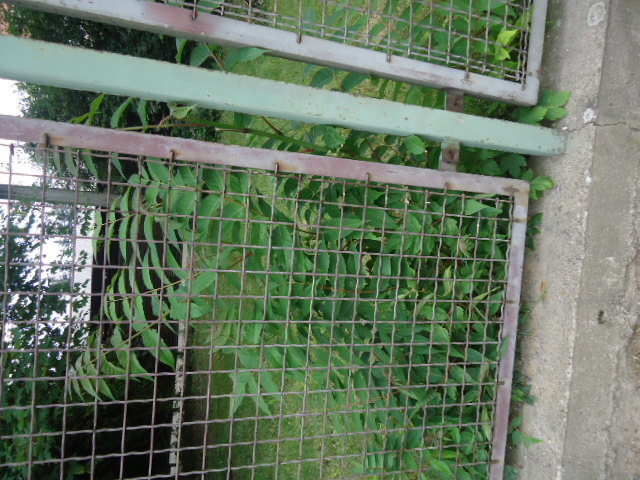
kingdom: Plantae
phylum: Tracheophyta
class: Magnoliopsida
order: Sapindales
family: Simaroubaceae
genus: Ailanthus
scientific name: Ailanthus altissima
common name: Tree-of-heaven
